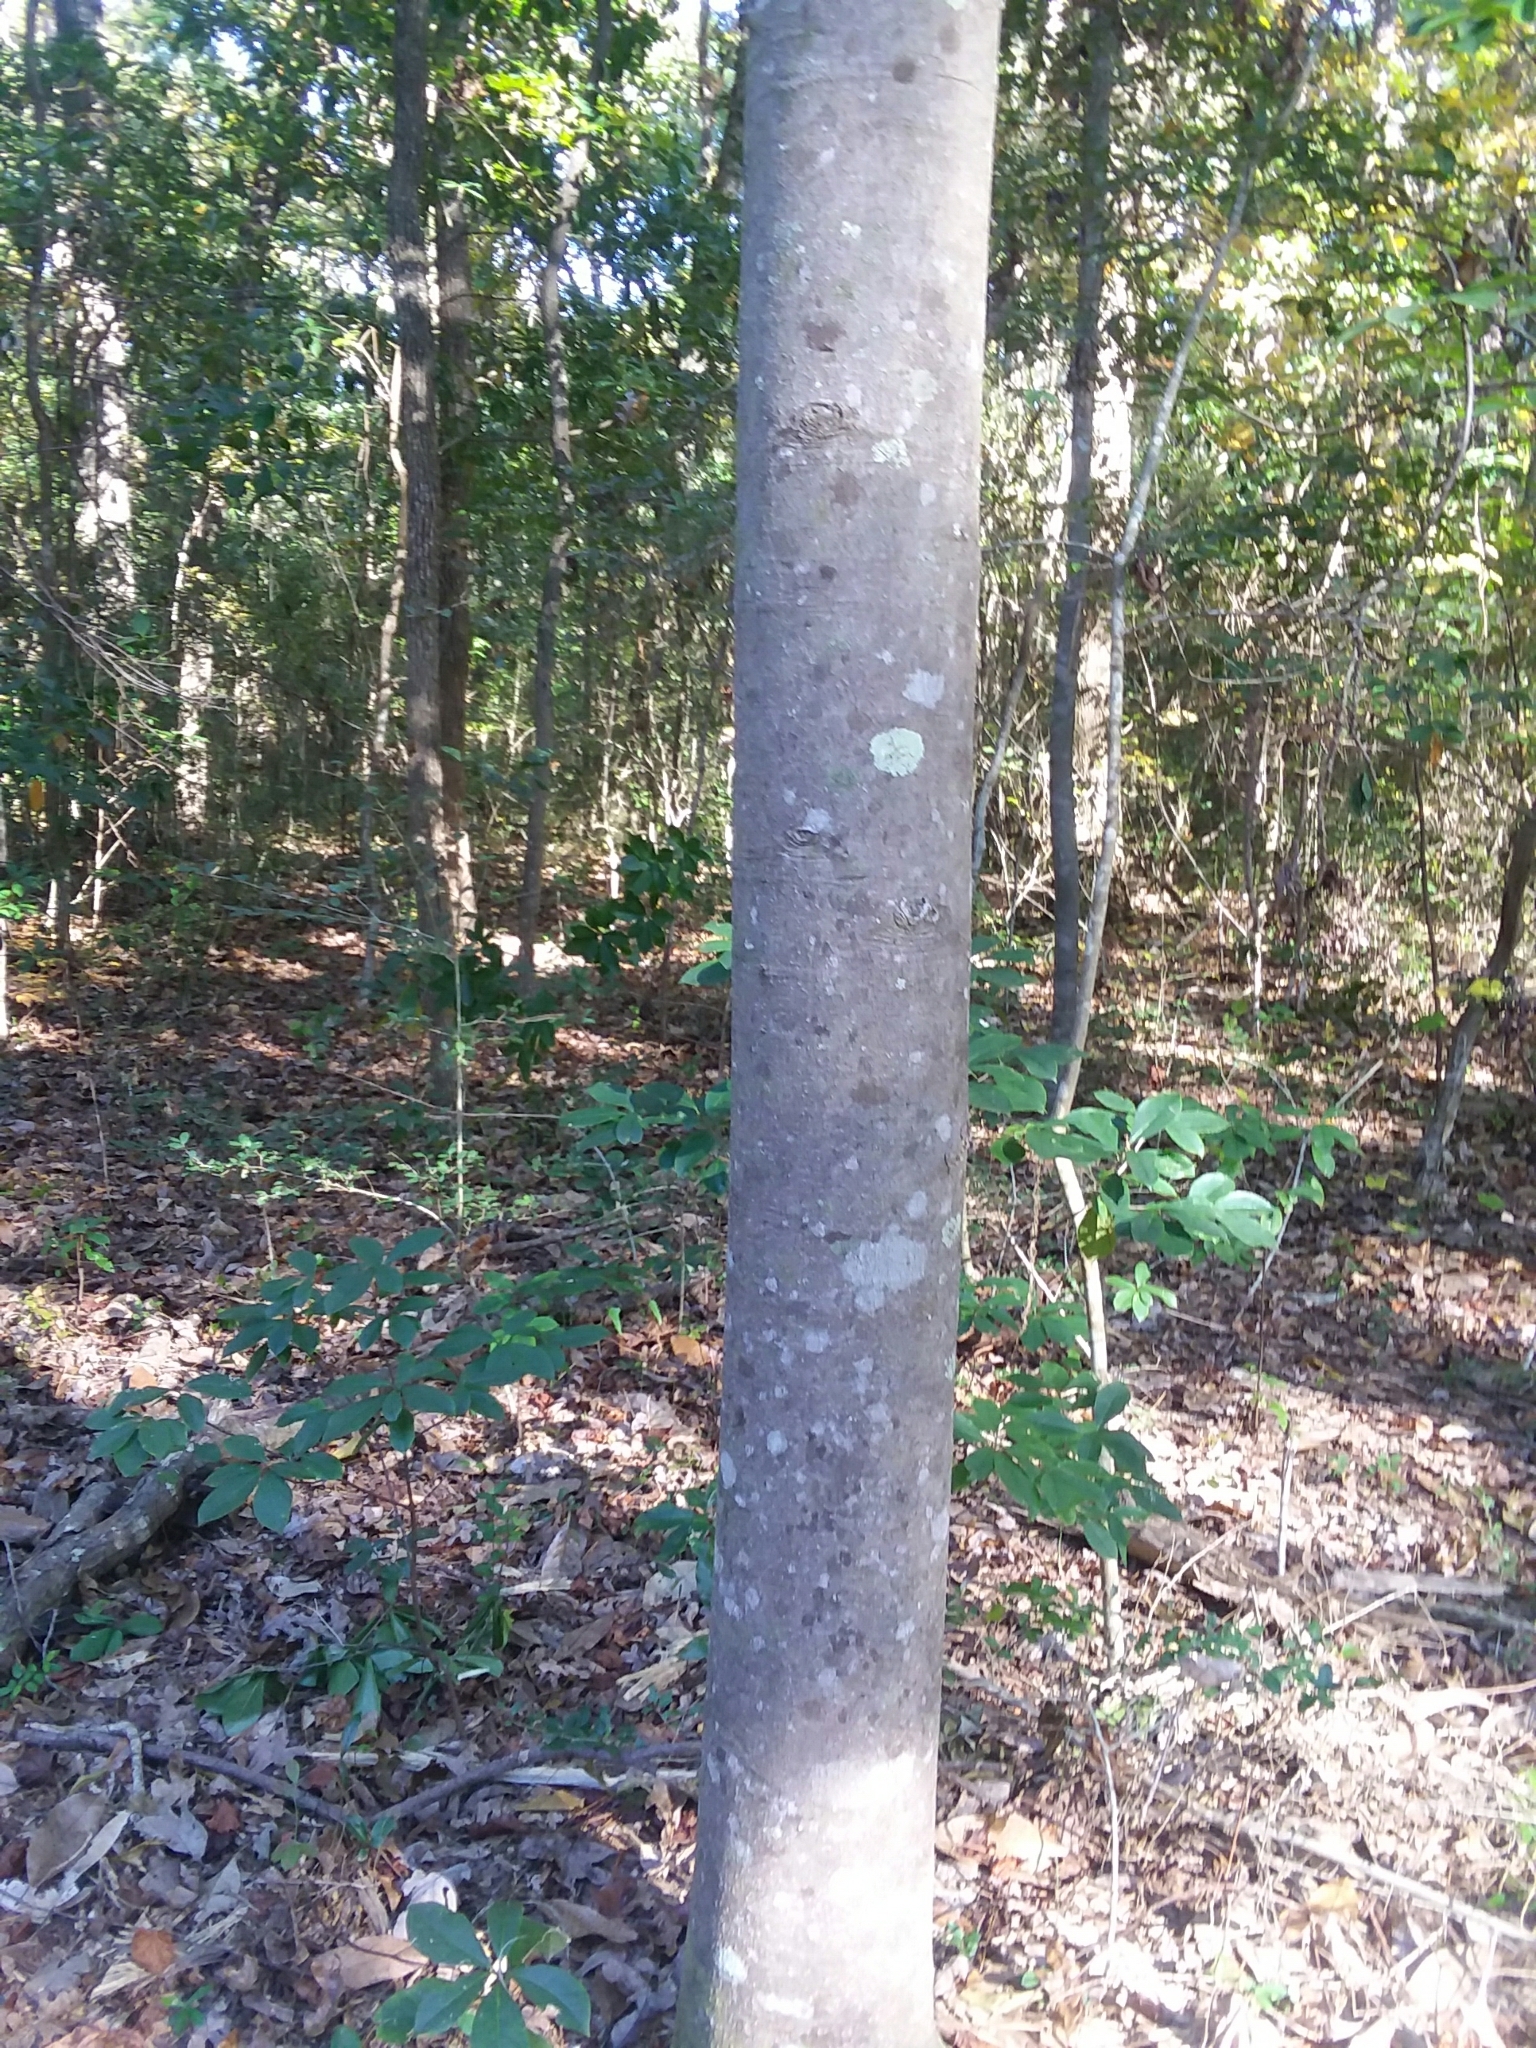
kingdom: Plantae
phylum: Tracheophyta
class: Magnoliopsida
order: Magnoliales
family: Magnoliaceae
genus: Magnolia
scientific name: Magnolia grandiflora
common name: Southern magnolia
